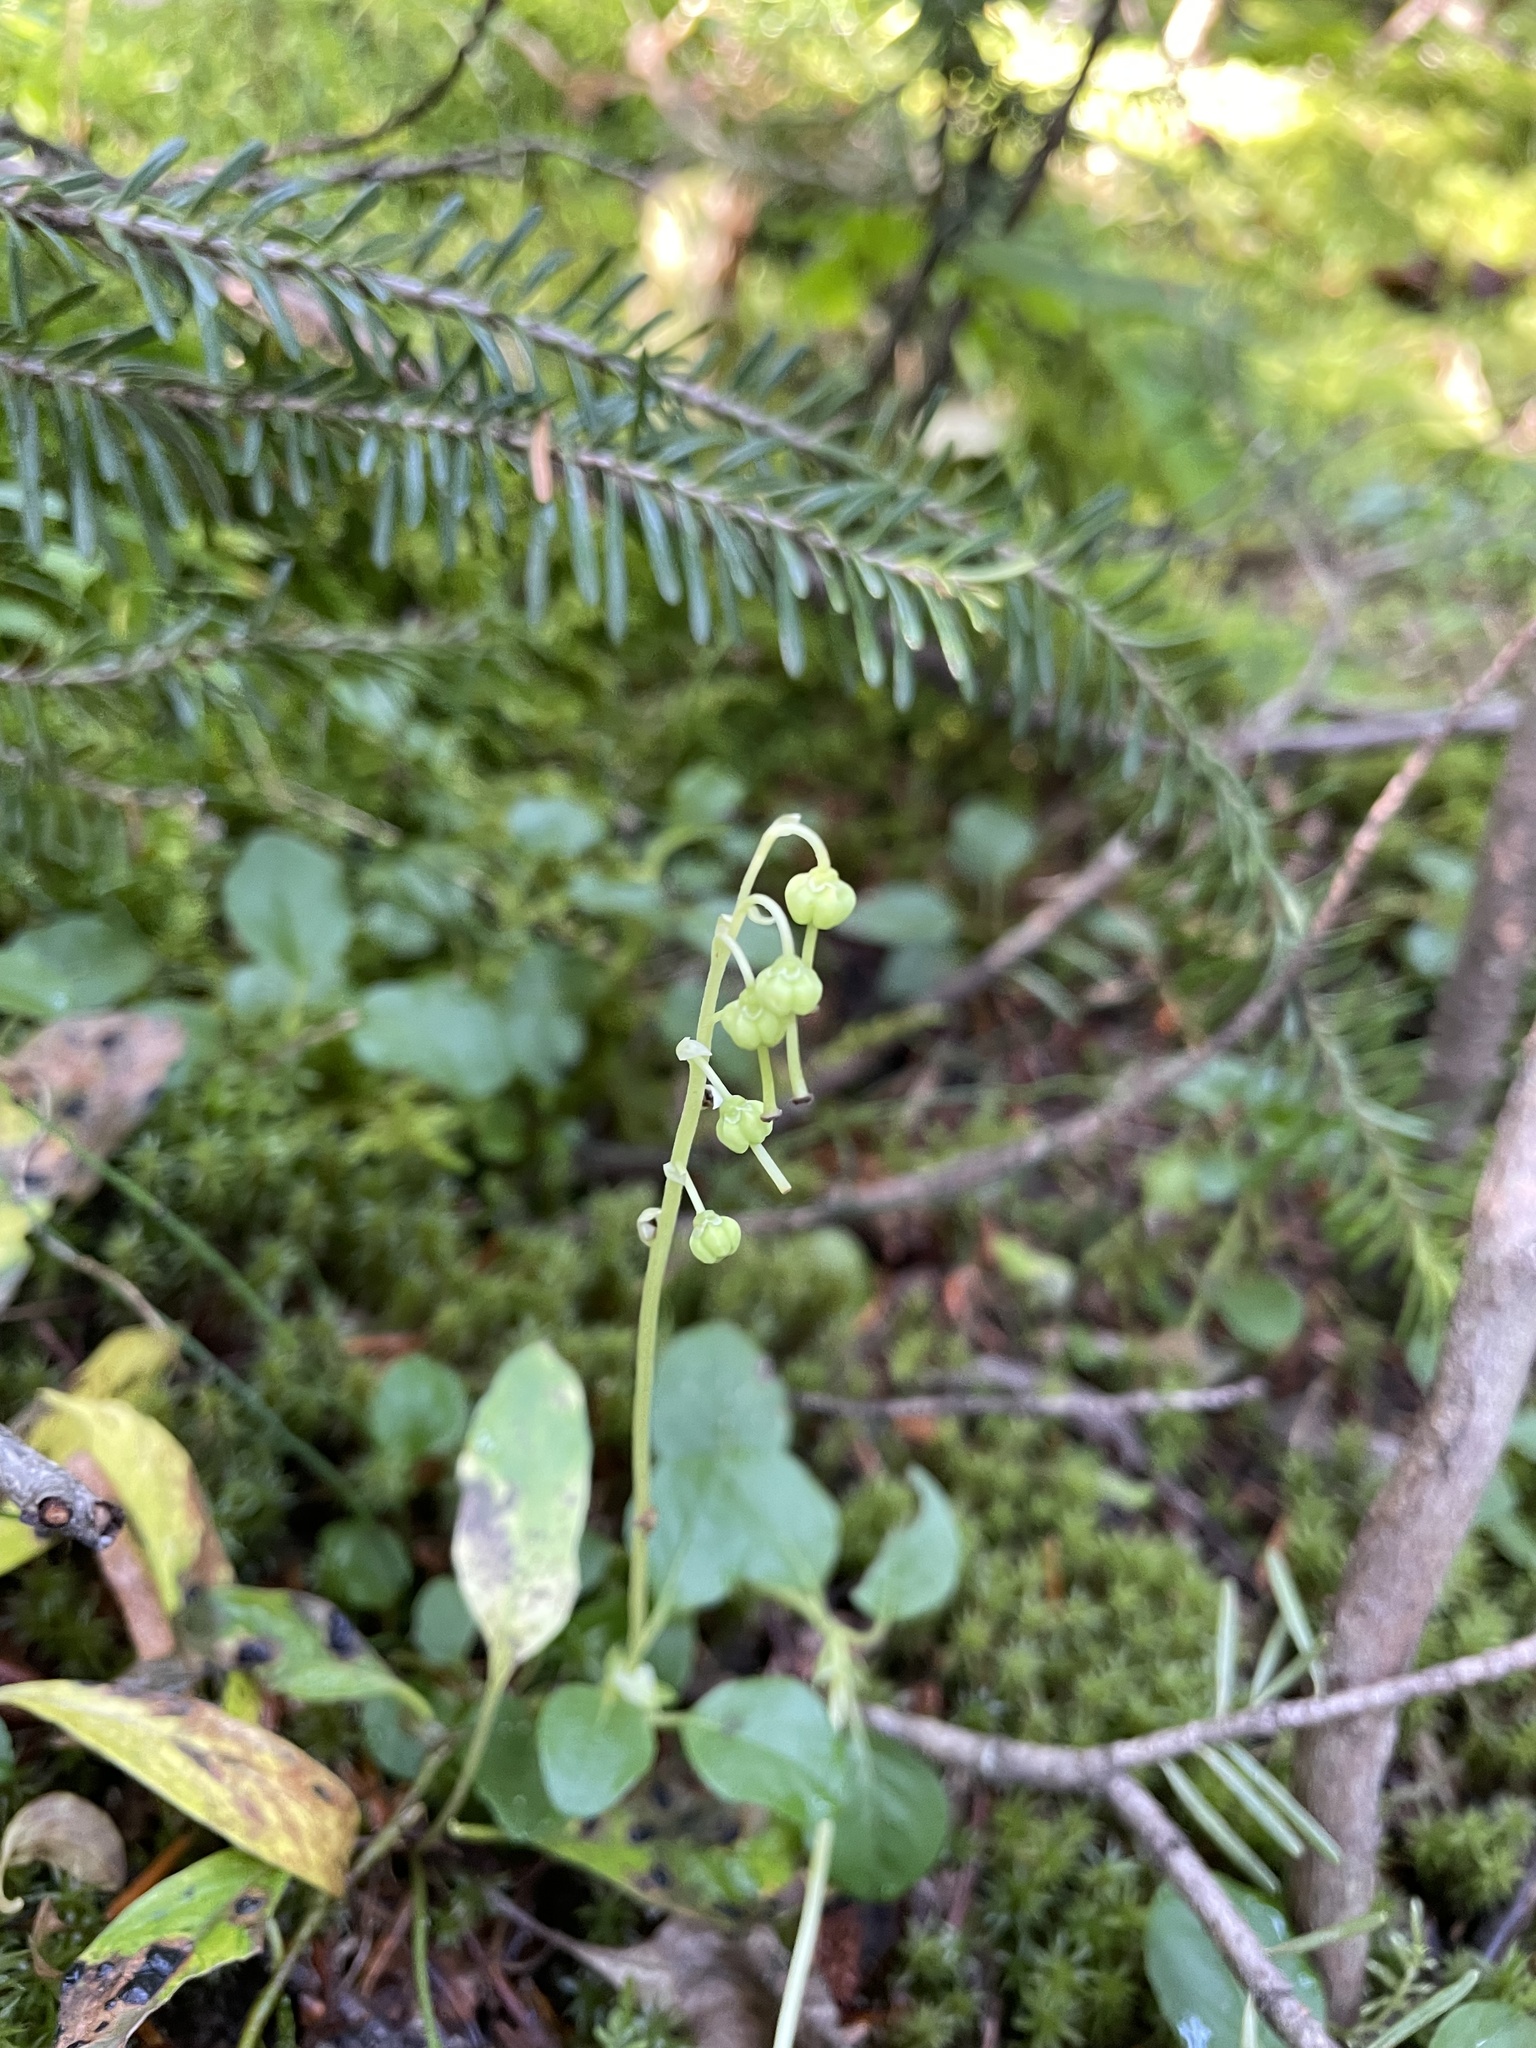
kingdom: Plantae
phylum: Tracheophyta
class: Magnoliopsida
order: Ericales
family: Ericaceae
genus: Orthilia
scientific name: Orthilia secunda
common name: One-sided orthilia
